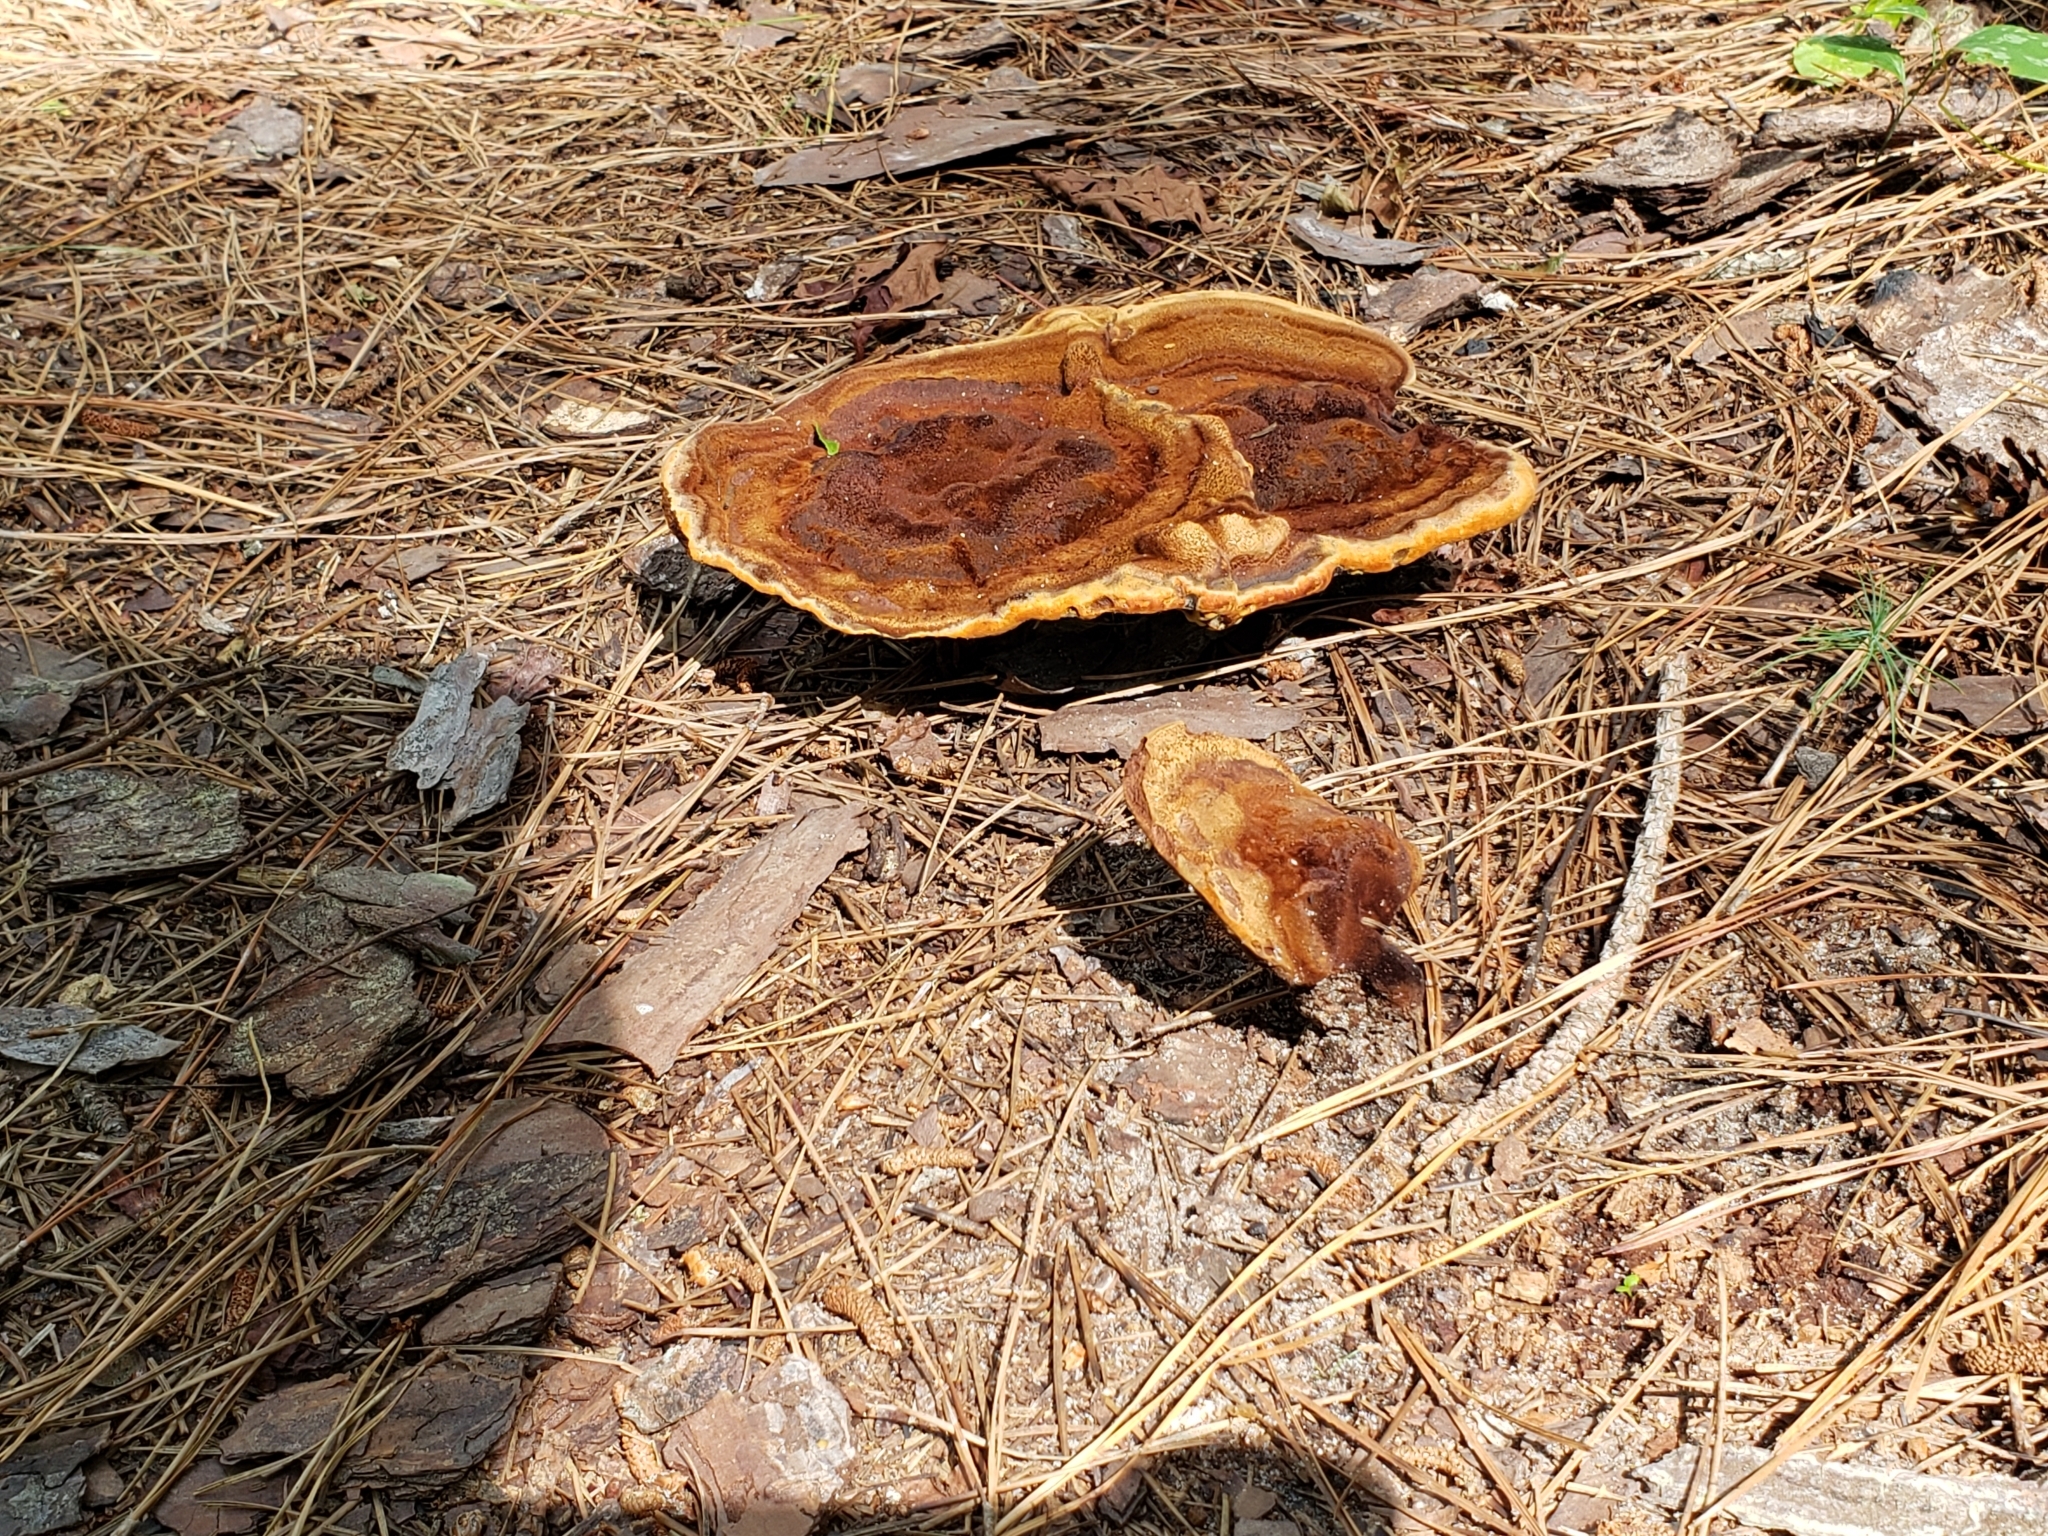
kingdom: Fungi
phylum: Basidiomycota
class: Agaricomycetes
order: Polyporales
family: Laetiporaceae
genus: Phaeolus
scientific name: Phaeolus schweinitzii
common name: Dyer's mazegill
